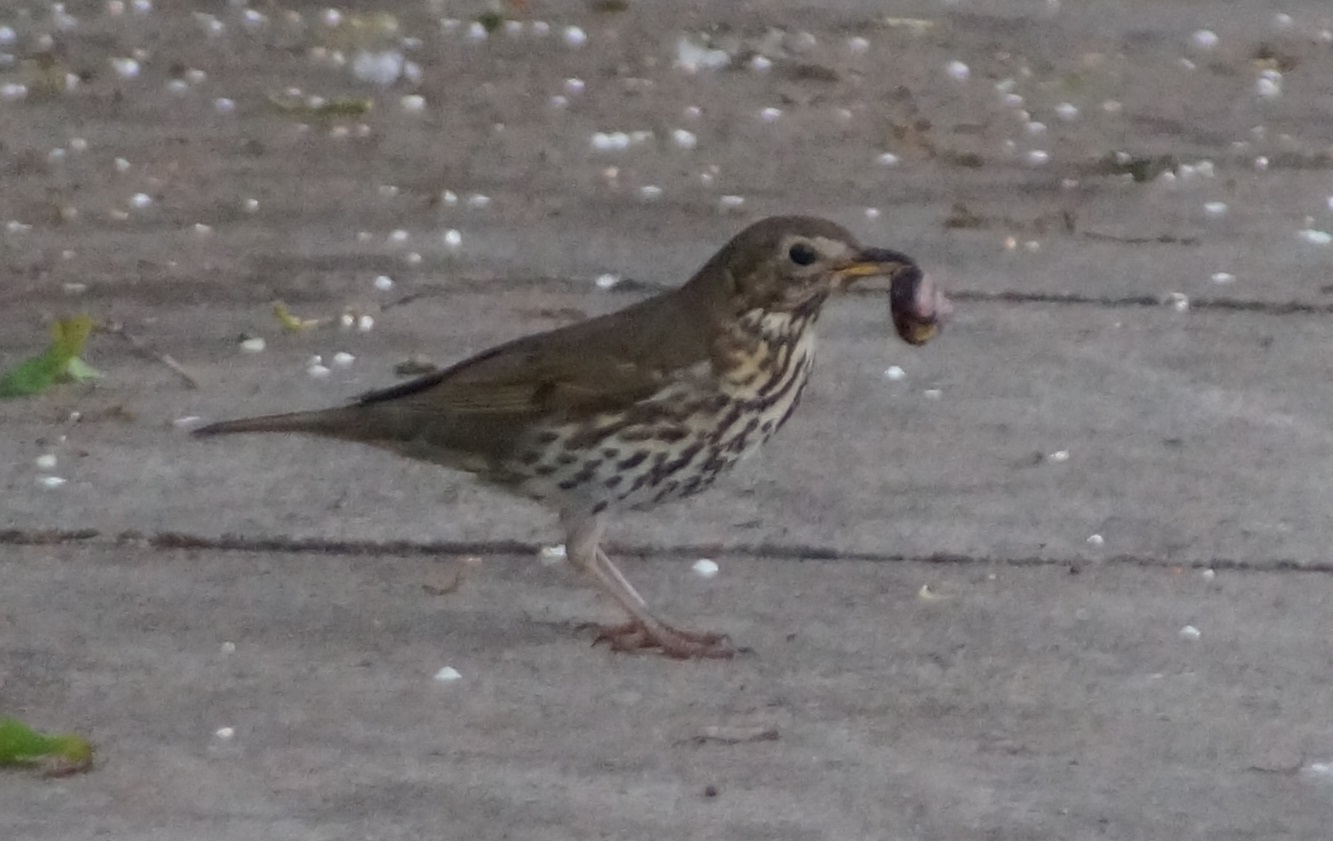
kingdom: Animalia
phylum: Chordata
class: Aves
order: Passeriformes
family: Turdidae
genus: Turdus
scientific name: Turdus philomelos
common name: Song thrush
